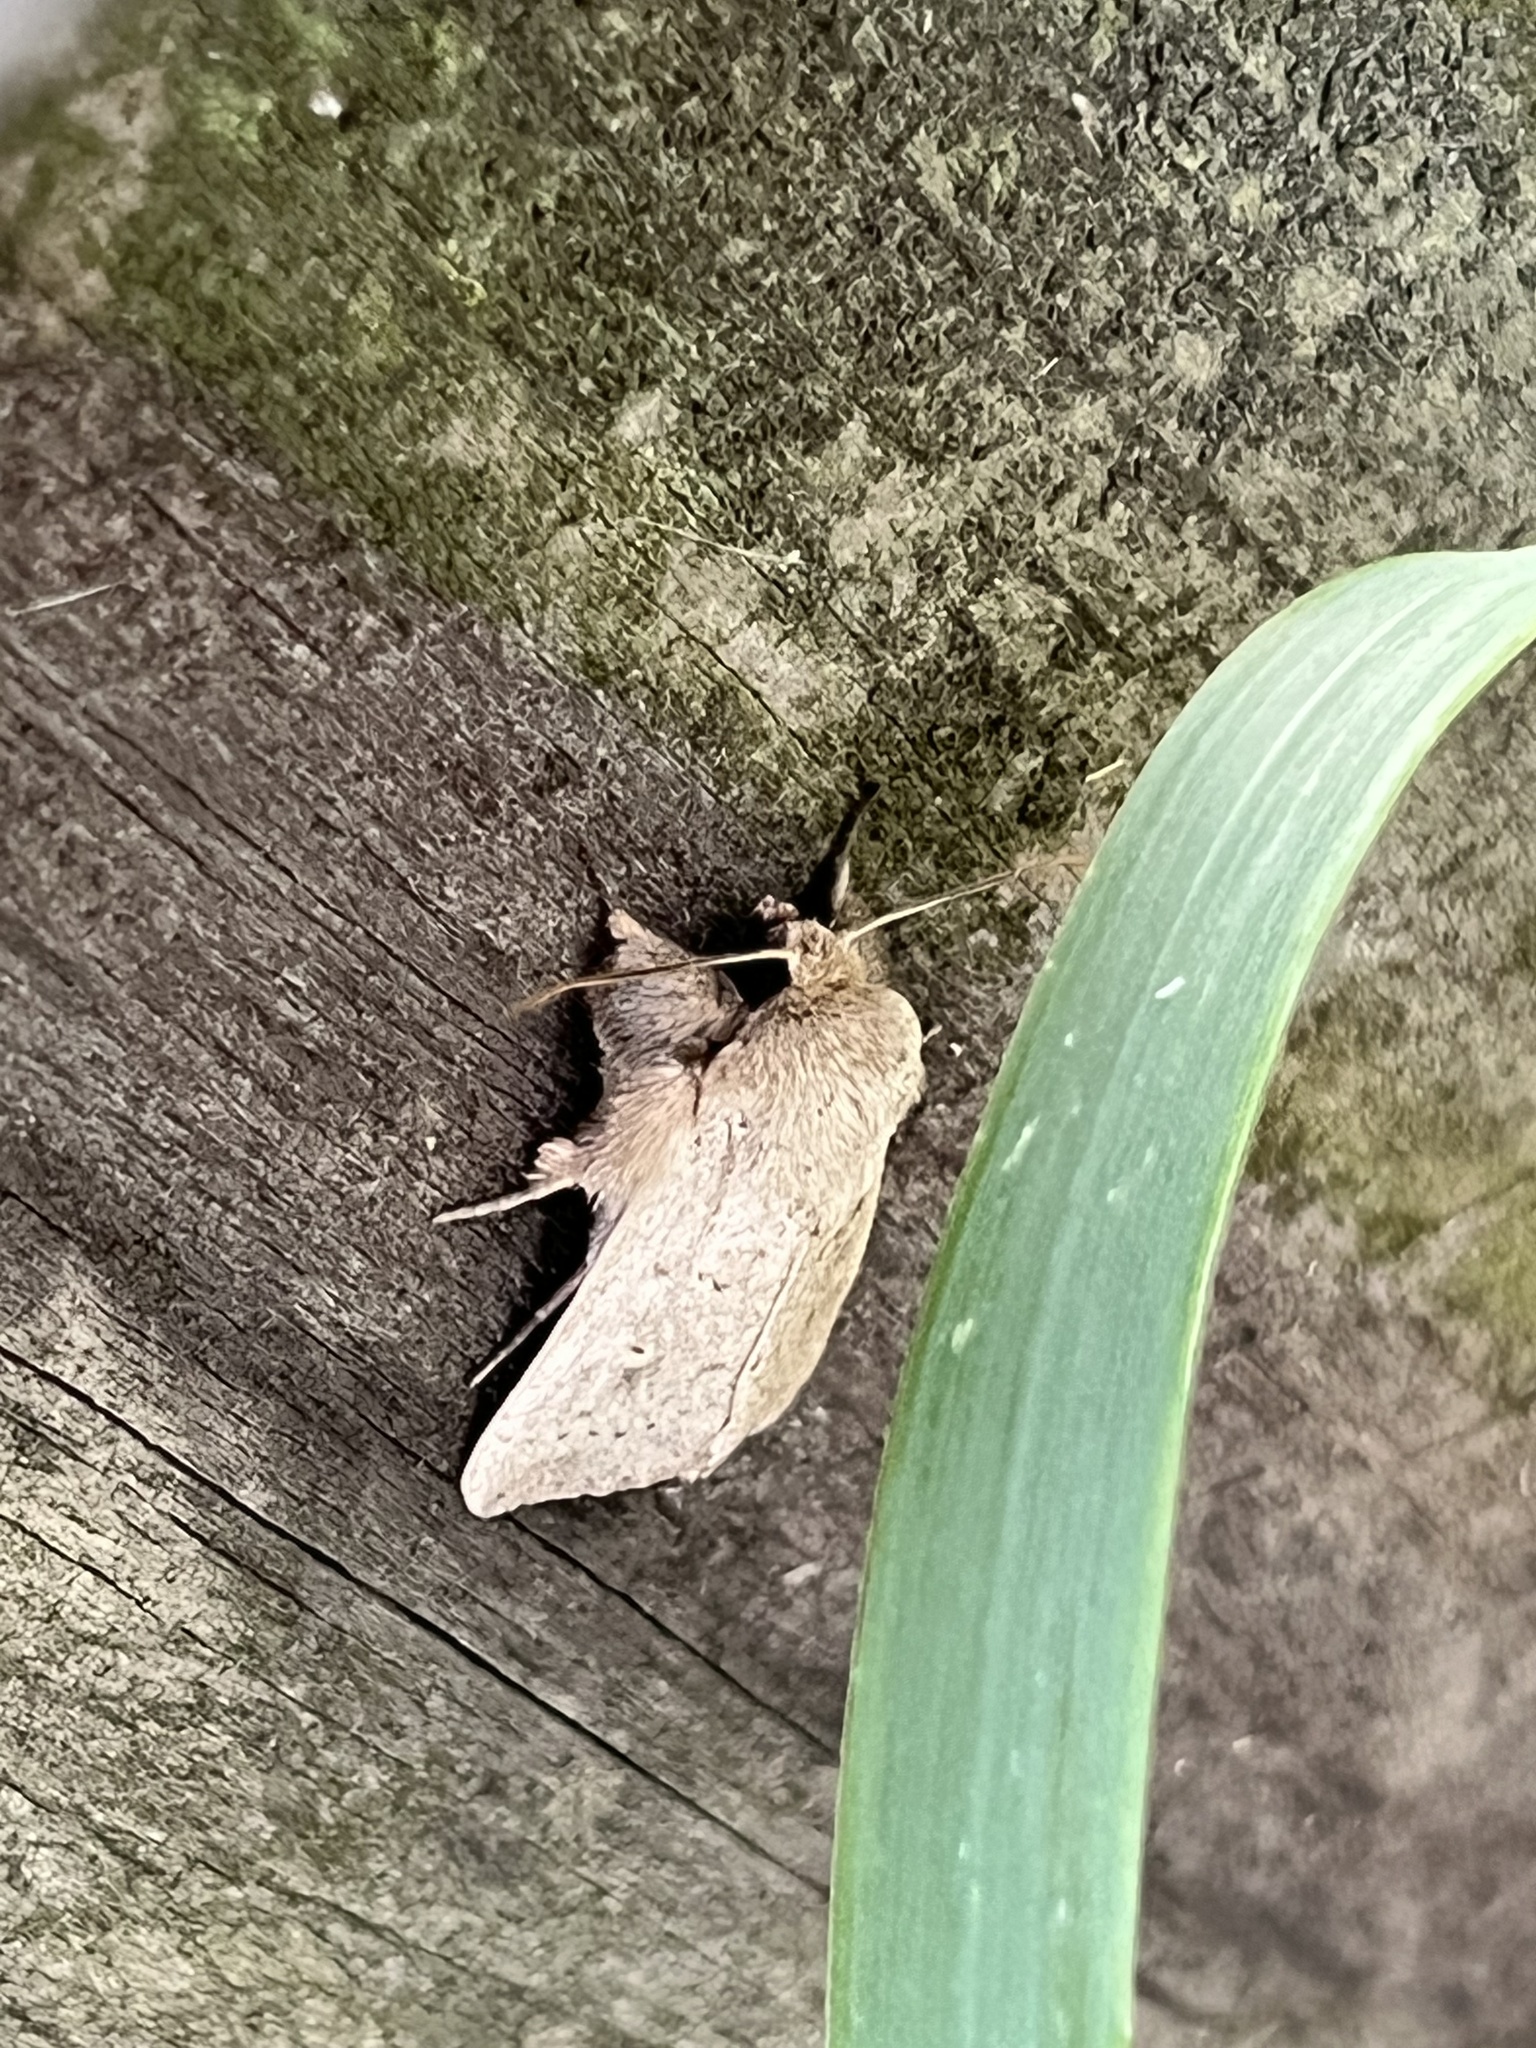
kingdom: Animalia
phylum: Arthropoda
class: Insecta
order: Lepidoptera
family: Noctuidae
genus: Leucania
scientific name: Leucania ursula
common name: Ursula wainscot
